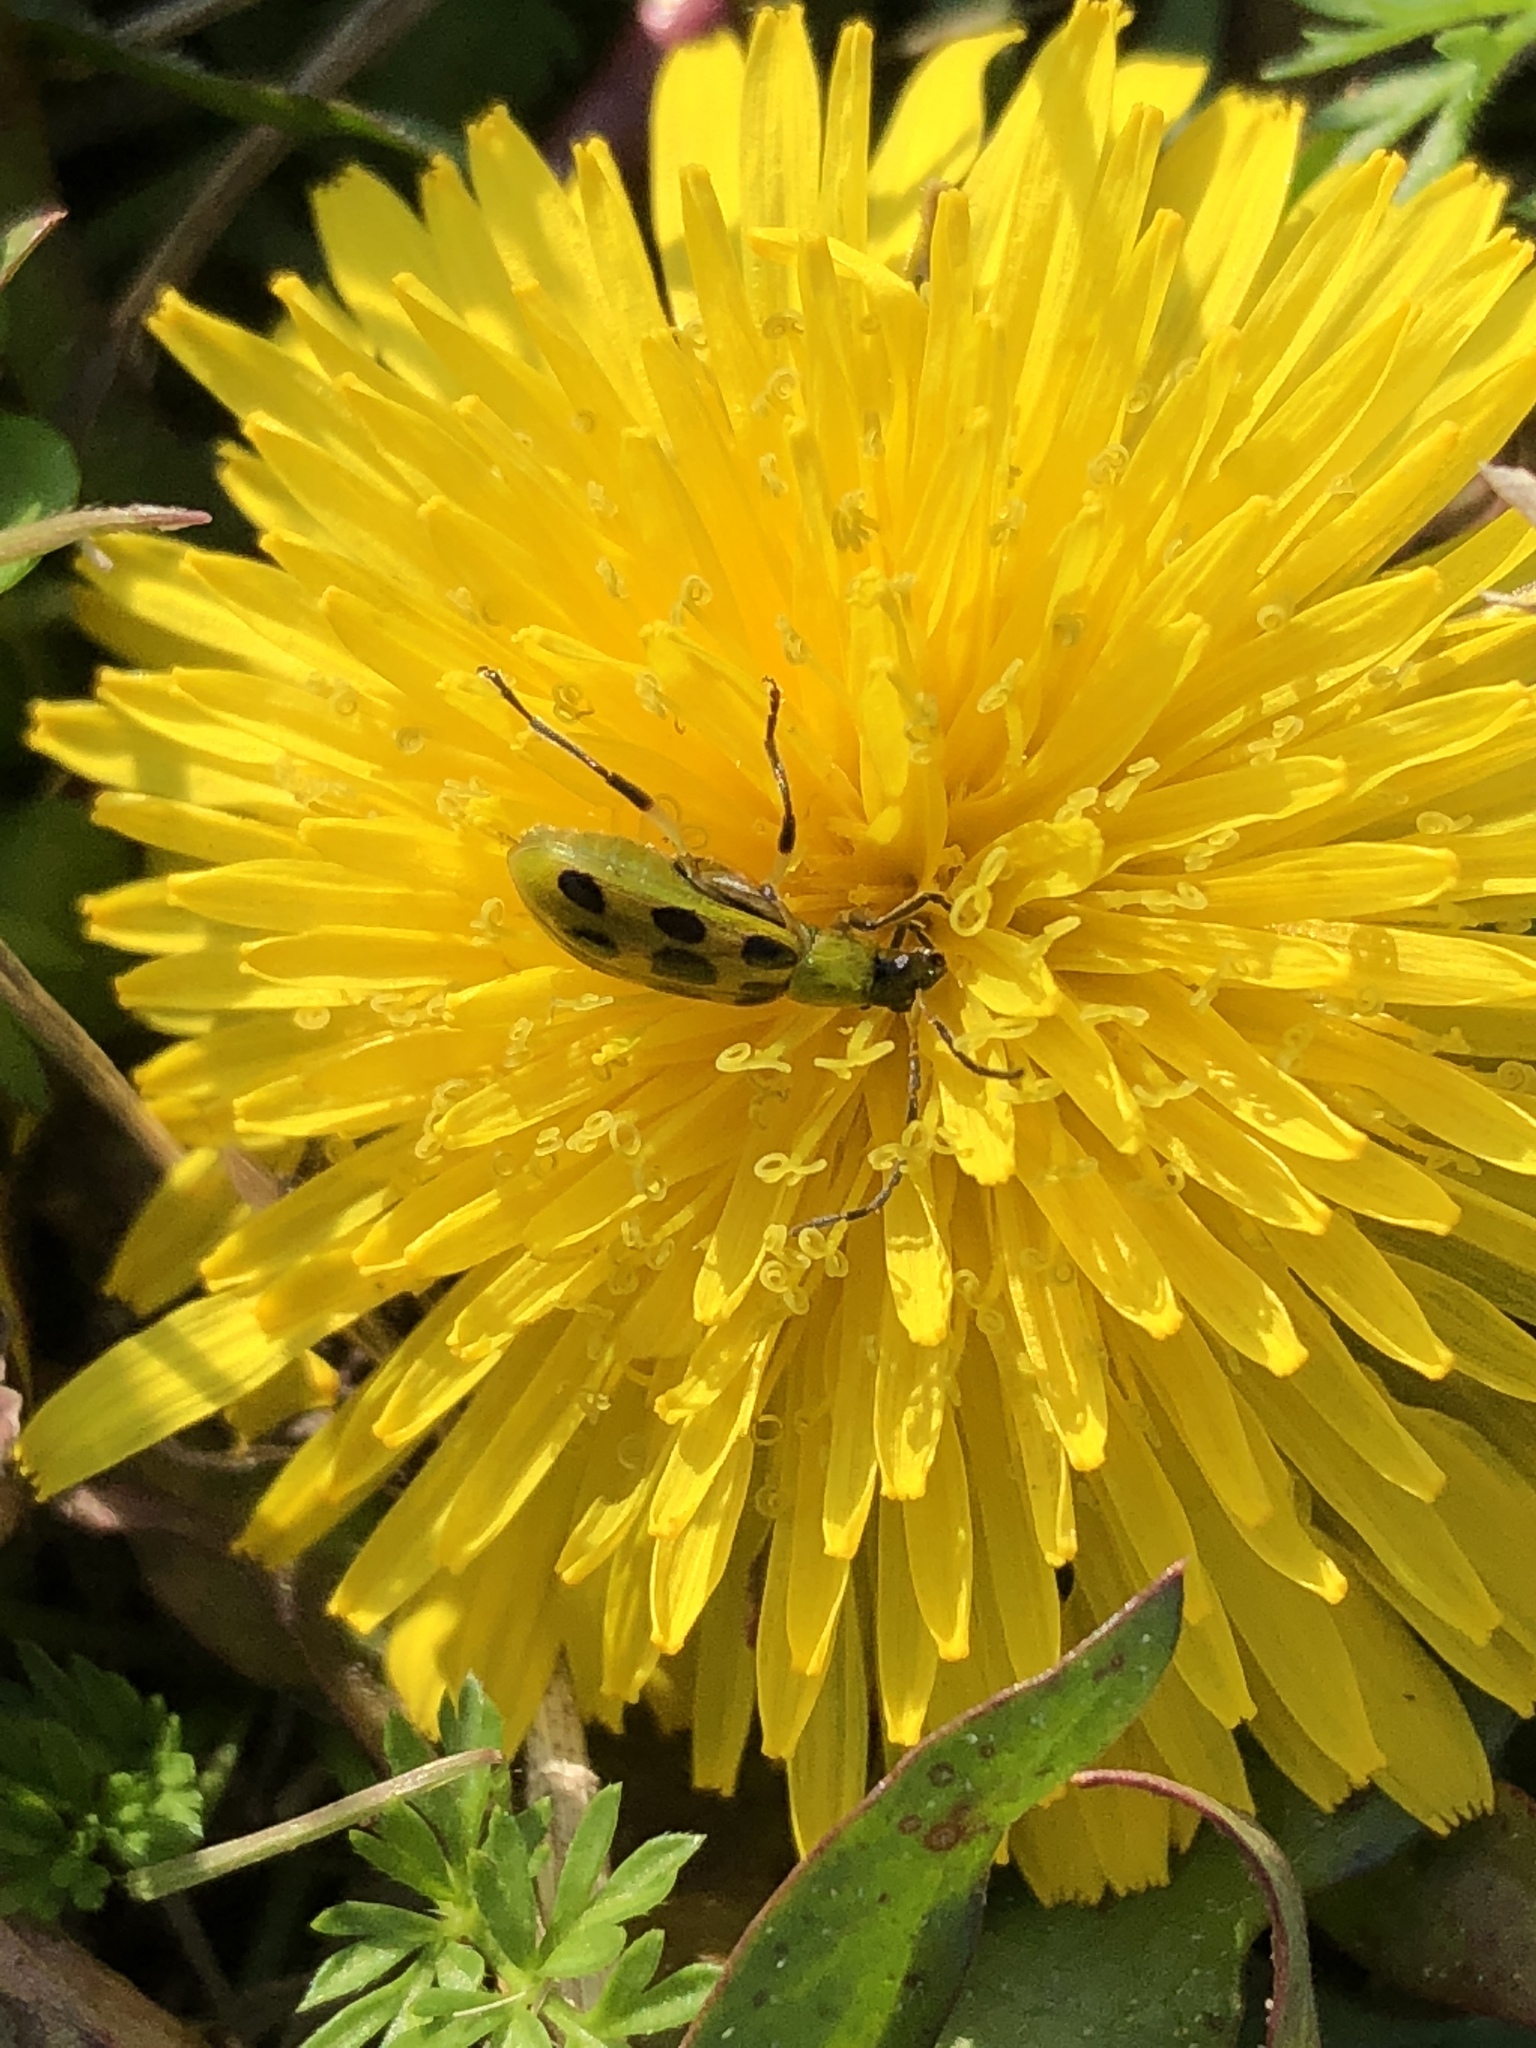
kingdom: Animalia
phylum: Arthropoda
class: Insecta
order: Coleoptera
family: Chrysomelidae
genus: Diabrotica
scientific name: Diabrotica undecimpunctata
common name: Spotted cucumber beetle
